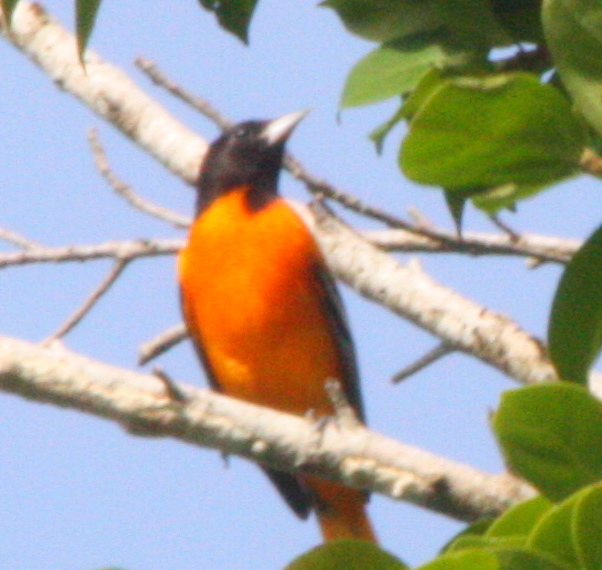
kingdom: Animalia
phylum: Chordata
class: Aves
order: Passeriformes
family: Icteridae
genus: Icterus
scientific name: Icterus galbula
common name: Baltimore oriole
